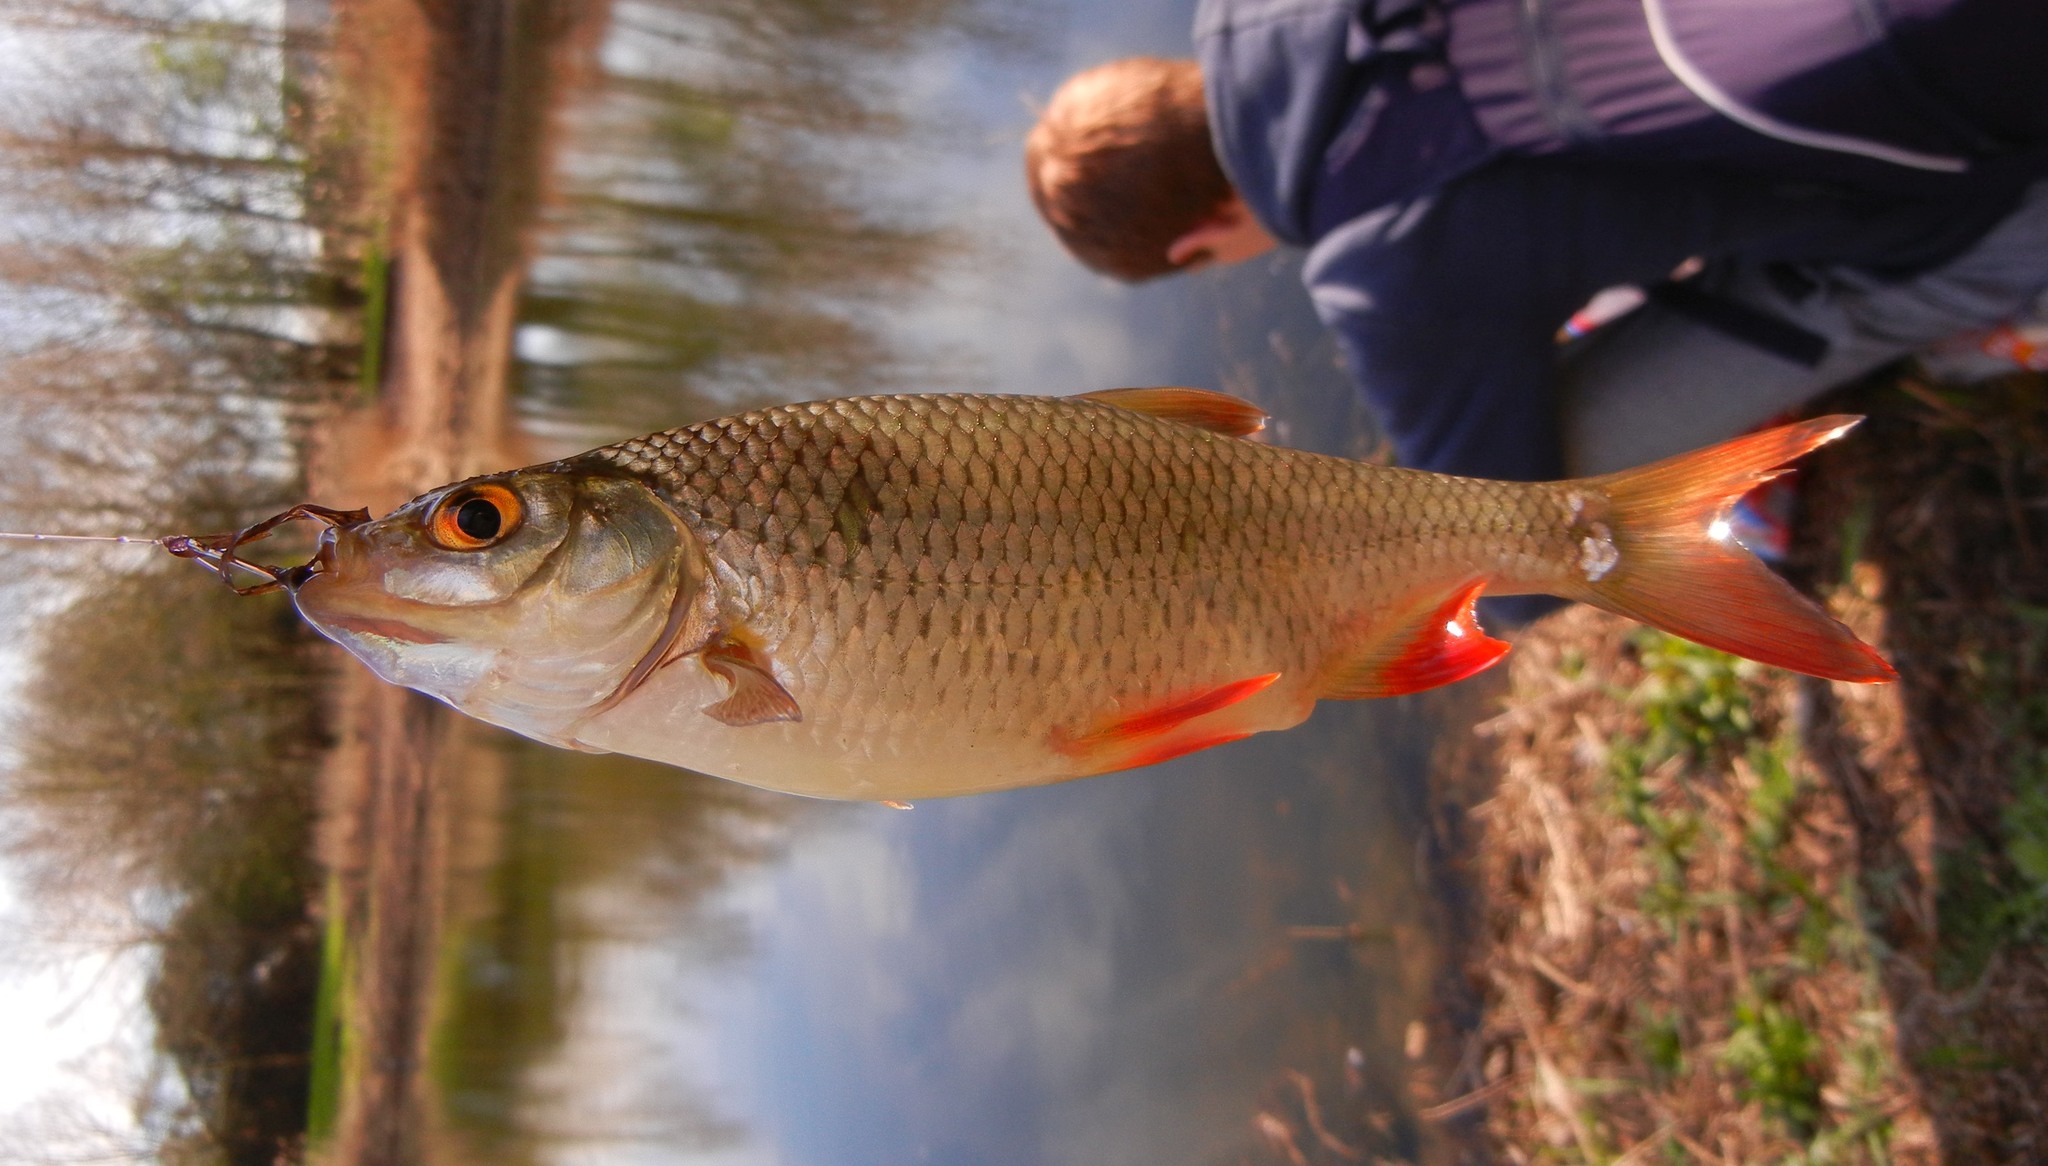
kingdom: Animalia
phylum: Chordata
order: Cypriniformes
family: Cyprinidae
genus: Rutilus
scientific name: Rutilus rutilus
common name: Roach
